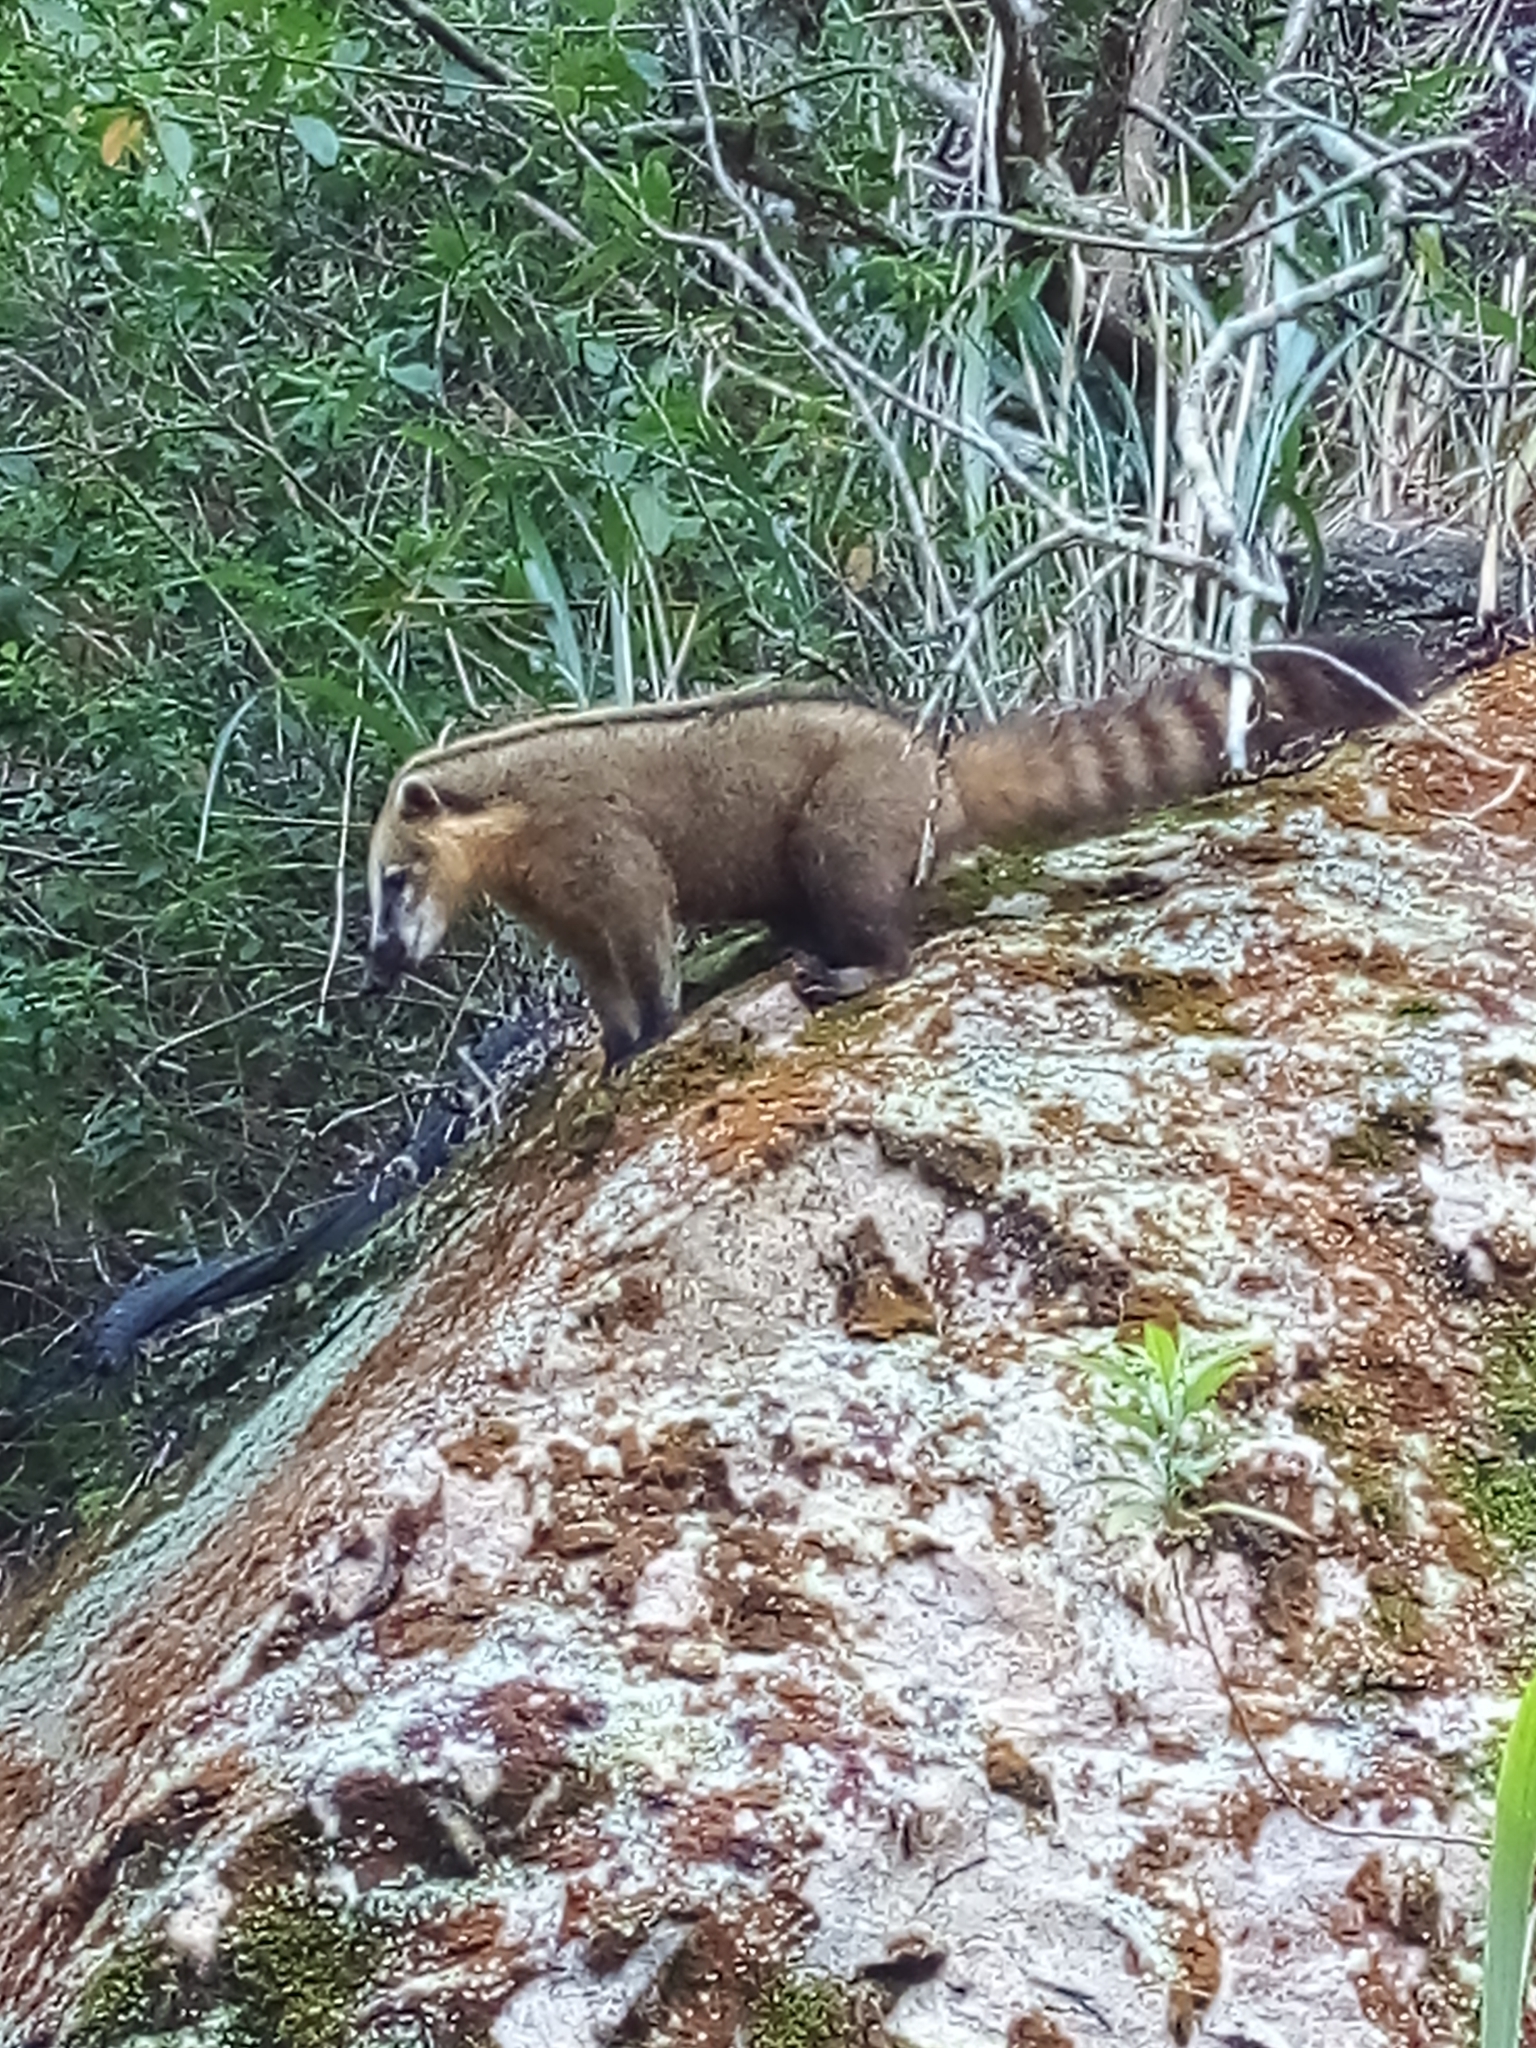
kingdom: Animalia
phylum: Chordata
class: Mammalia
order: Carnivora
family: Procyonidae
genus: Nasua
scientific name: Nasua nasua
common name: South american coati
